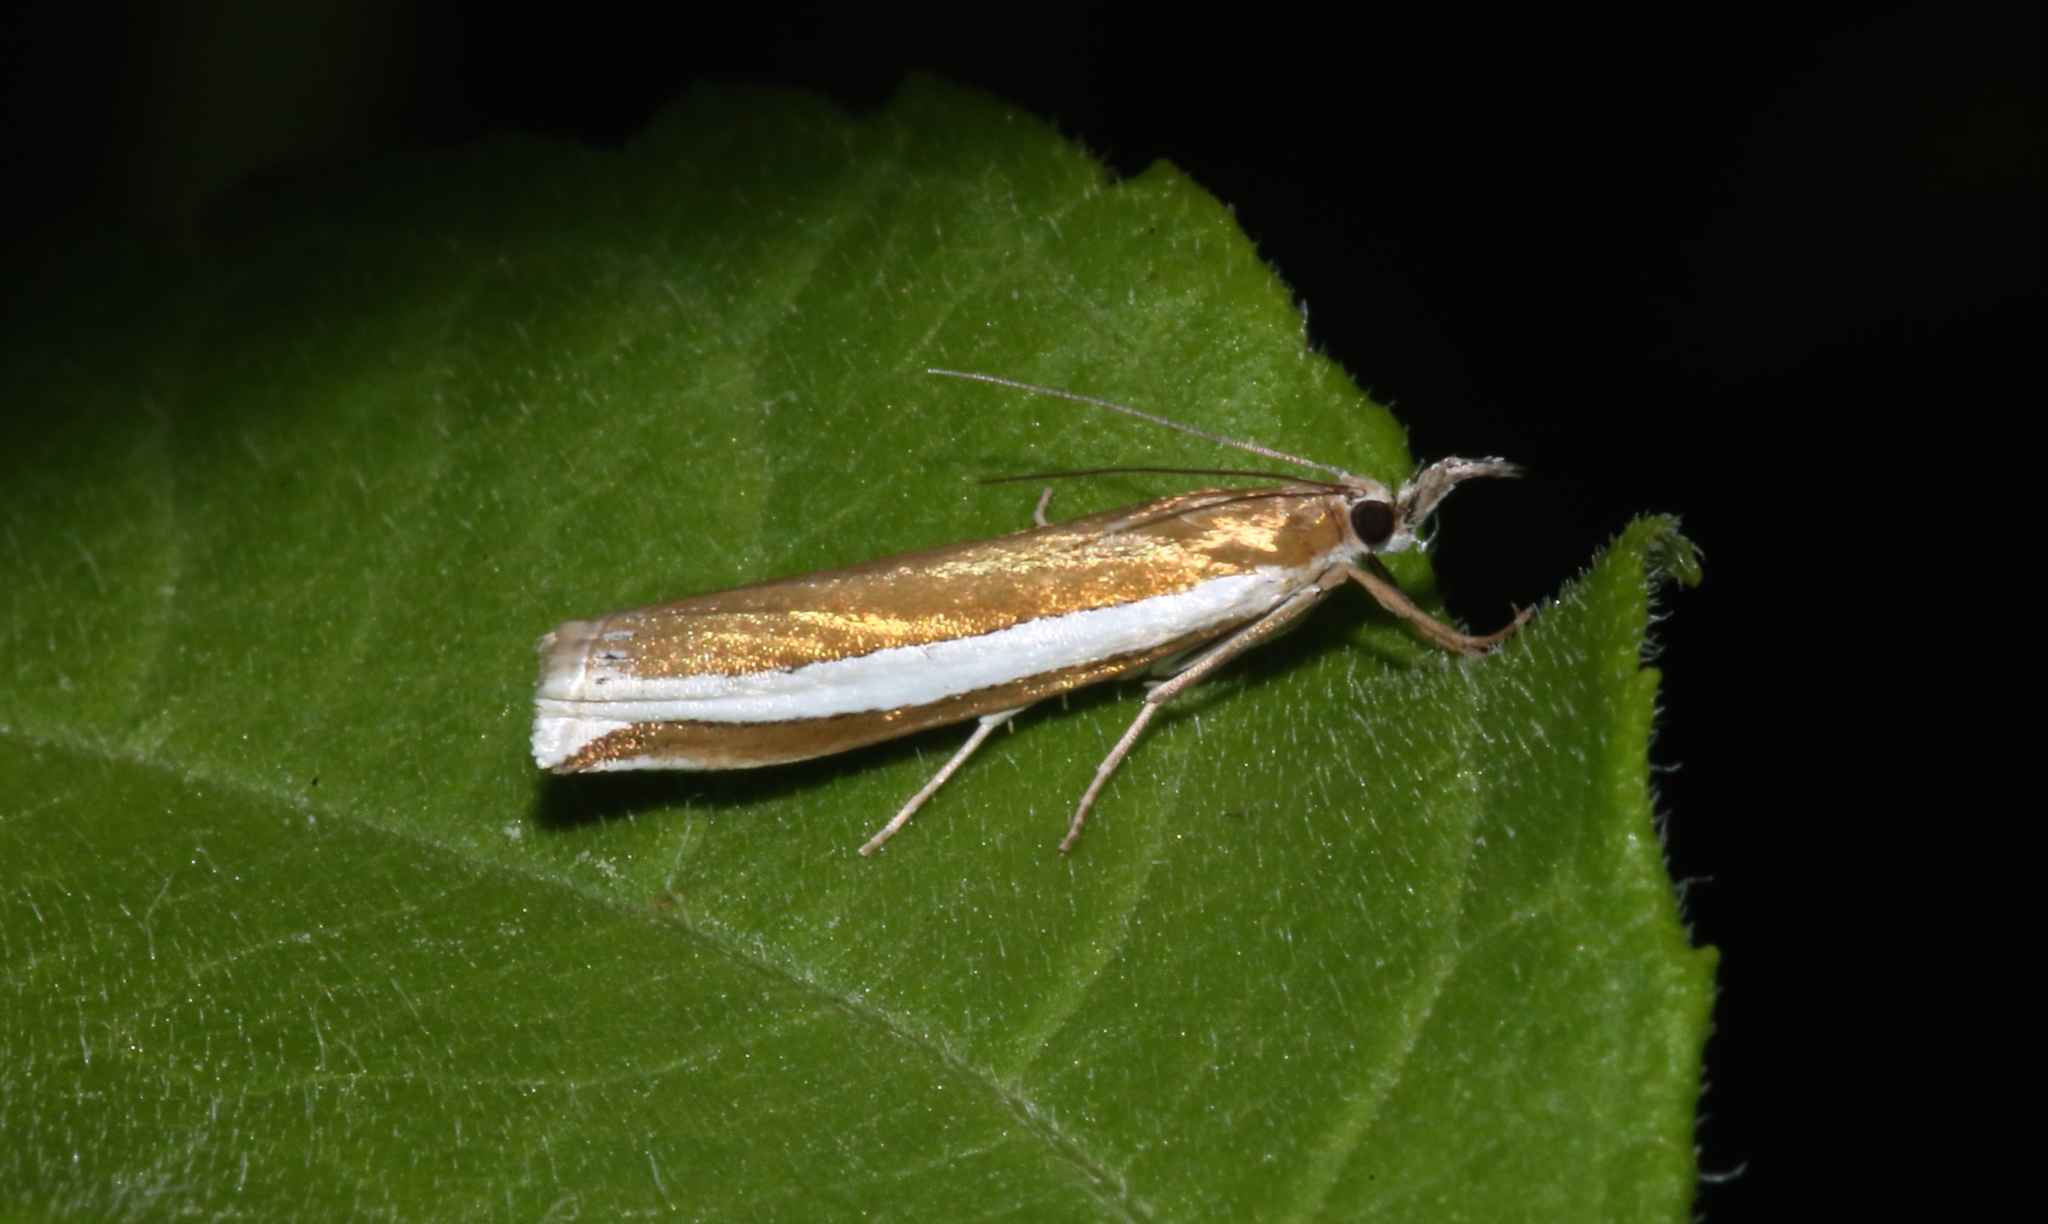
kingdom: Animalia
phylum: Arthropoda
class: Insecta
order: Lepidoptera
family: Crambidae
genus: Crambus
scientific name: Crambus unistriatellus
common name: Wide-stripe grass-veneer moth
